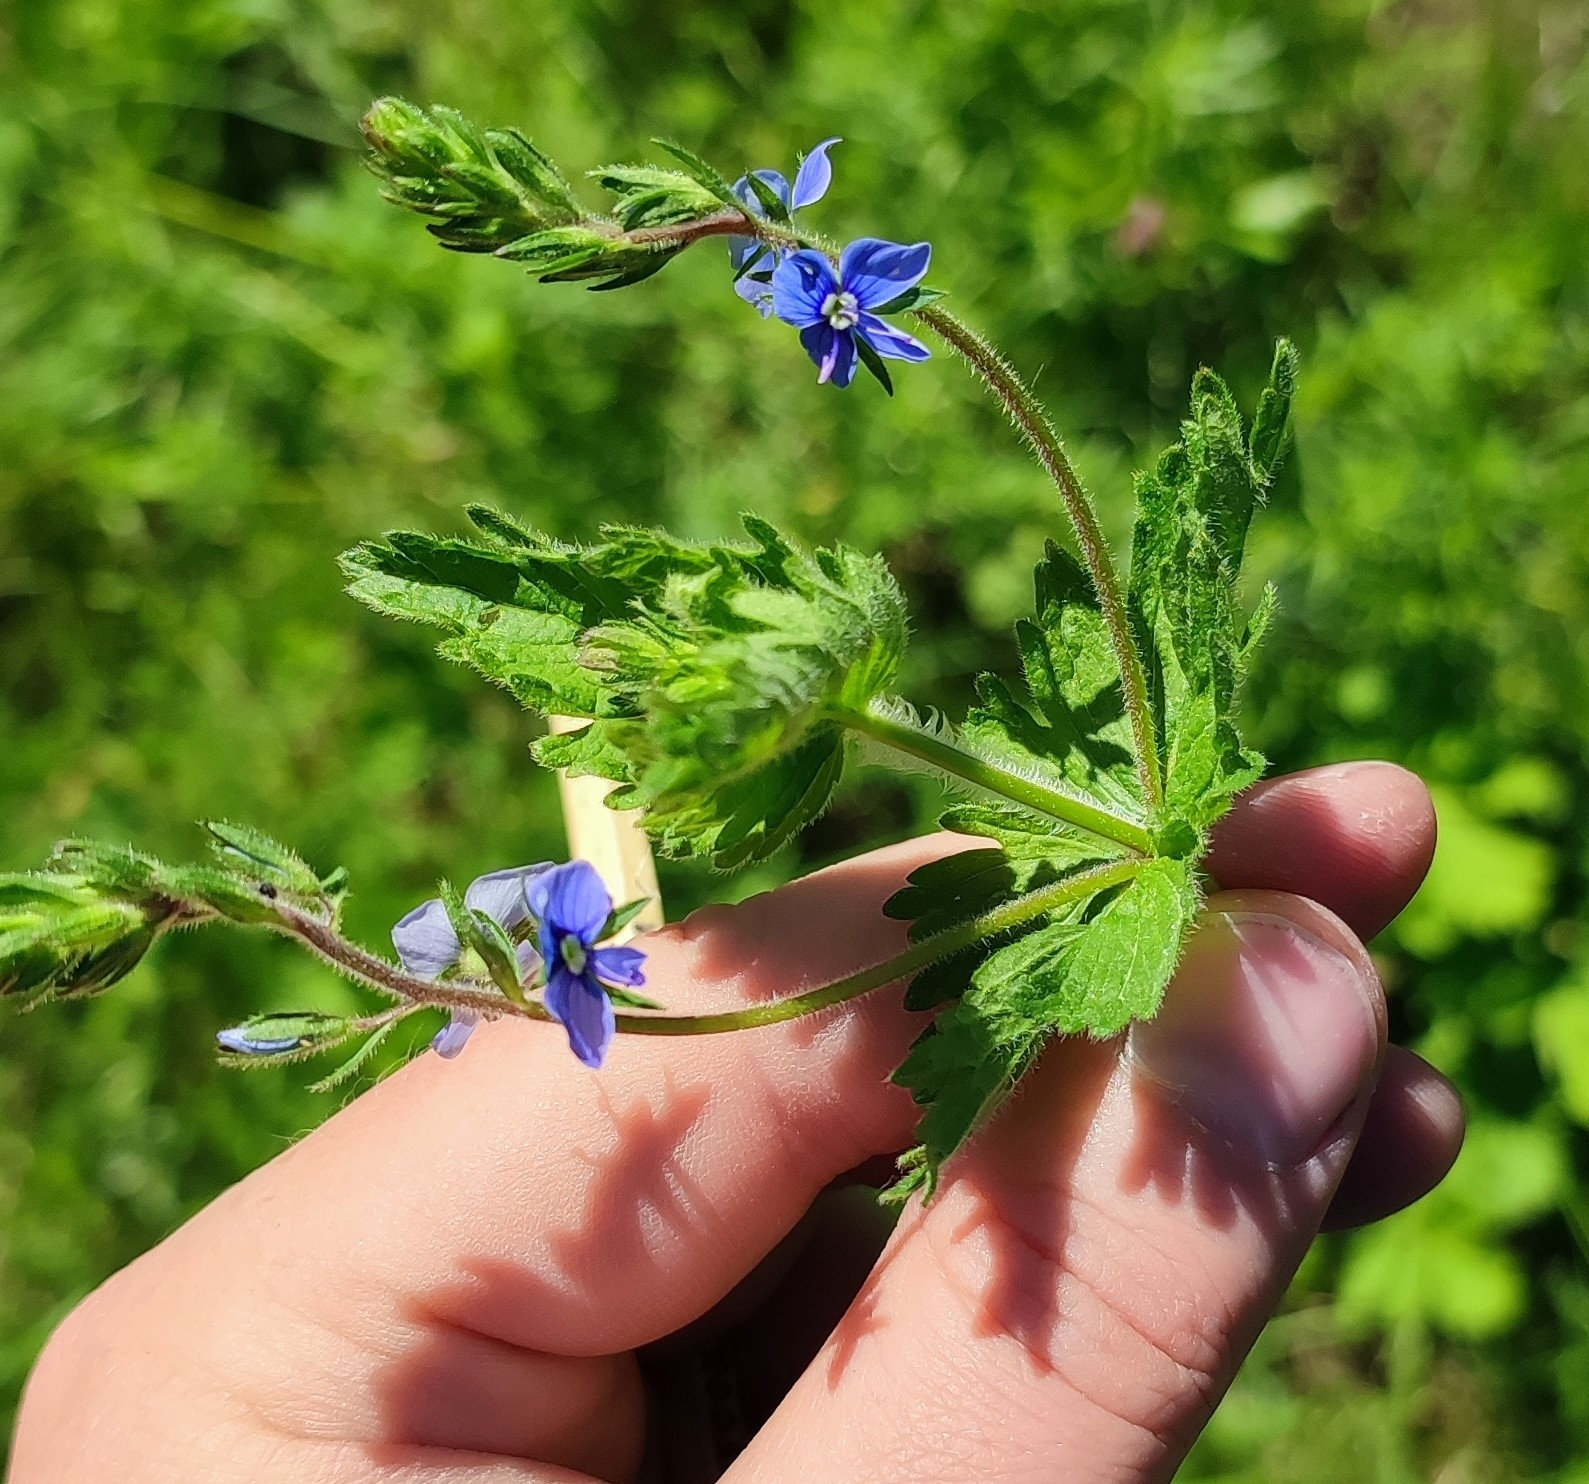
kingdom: Plantae
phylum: Tracheophyta
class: Magnoliopsida
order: Lamiales
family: Plantaginaceae
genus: Veronica
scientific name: Veronica teucrium
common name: Large speedwell
